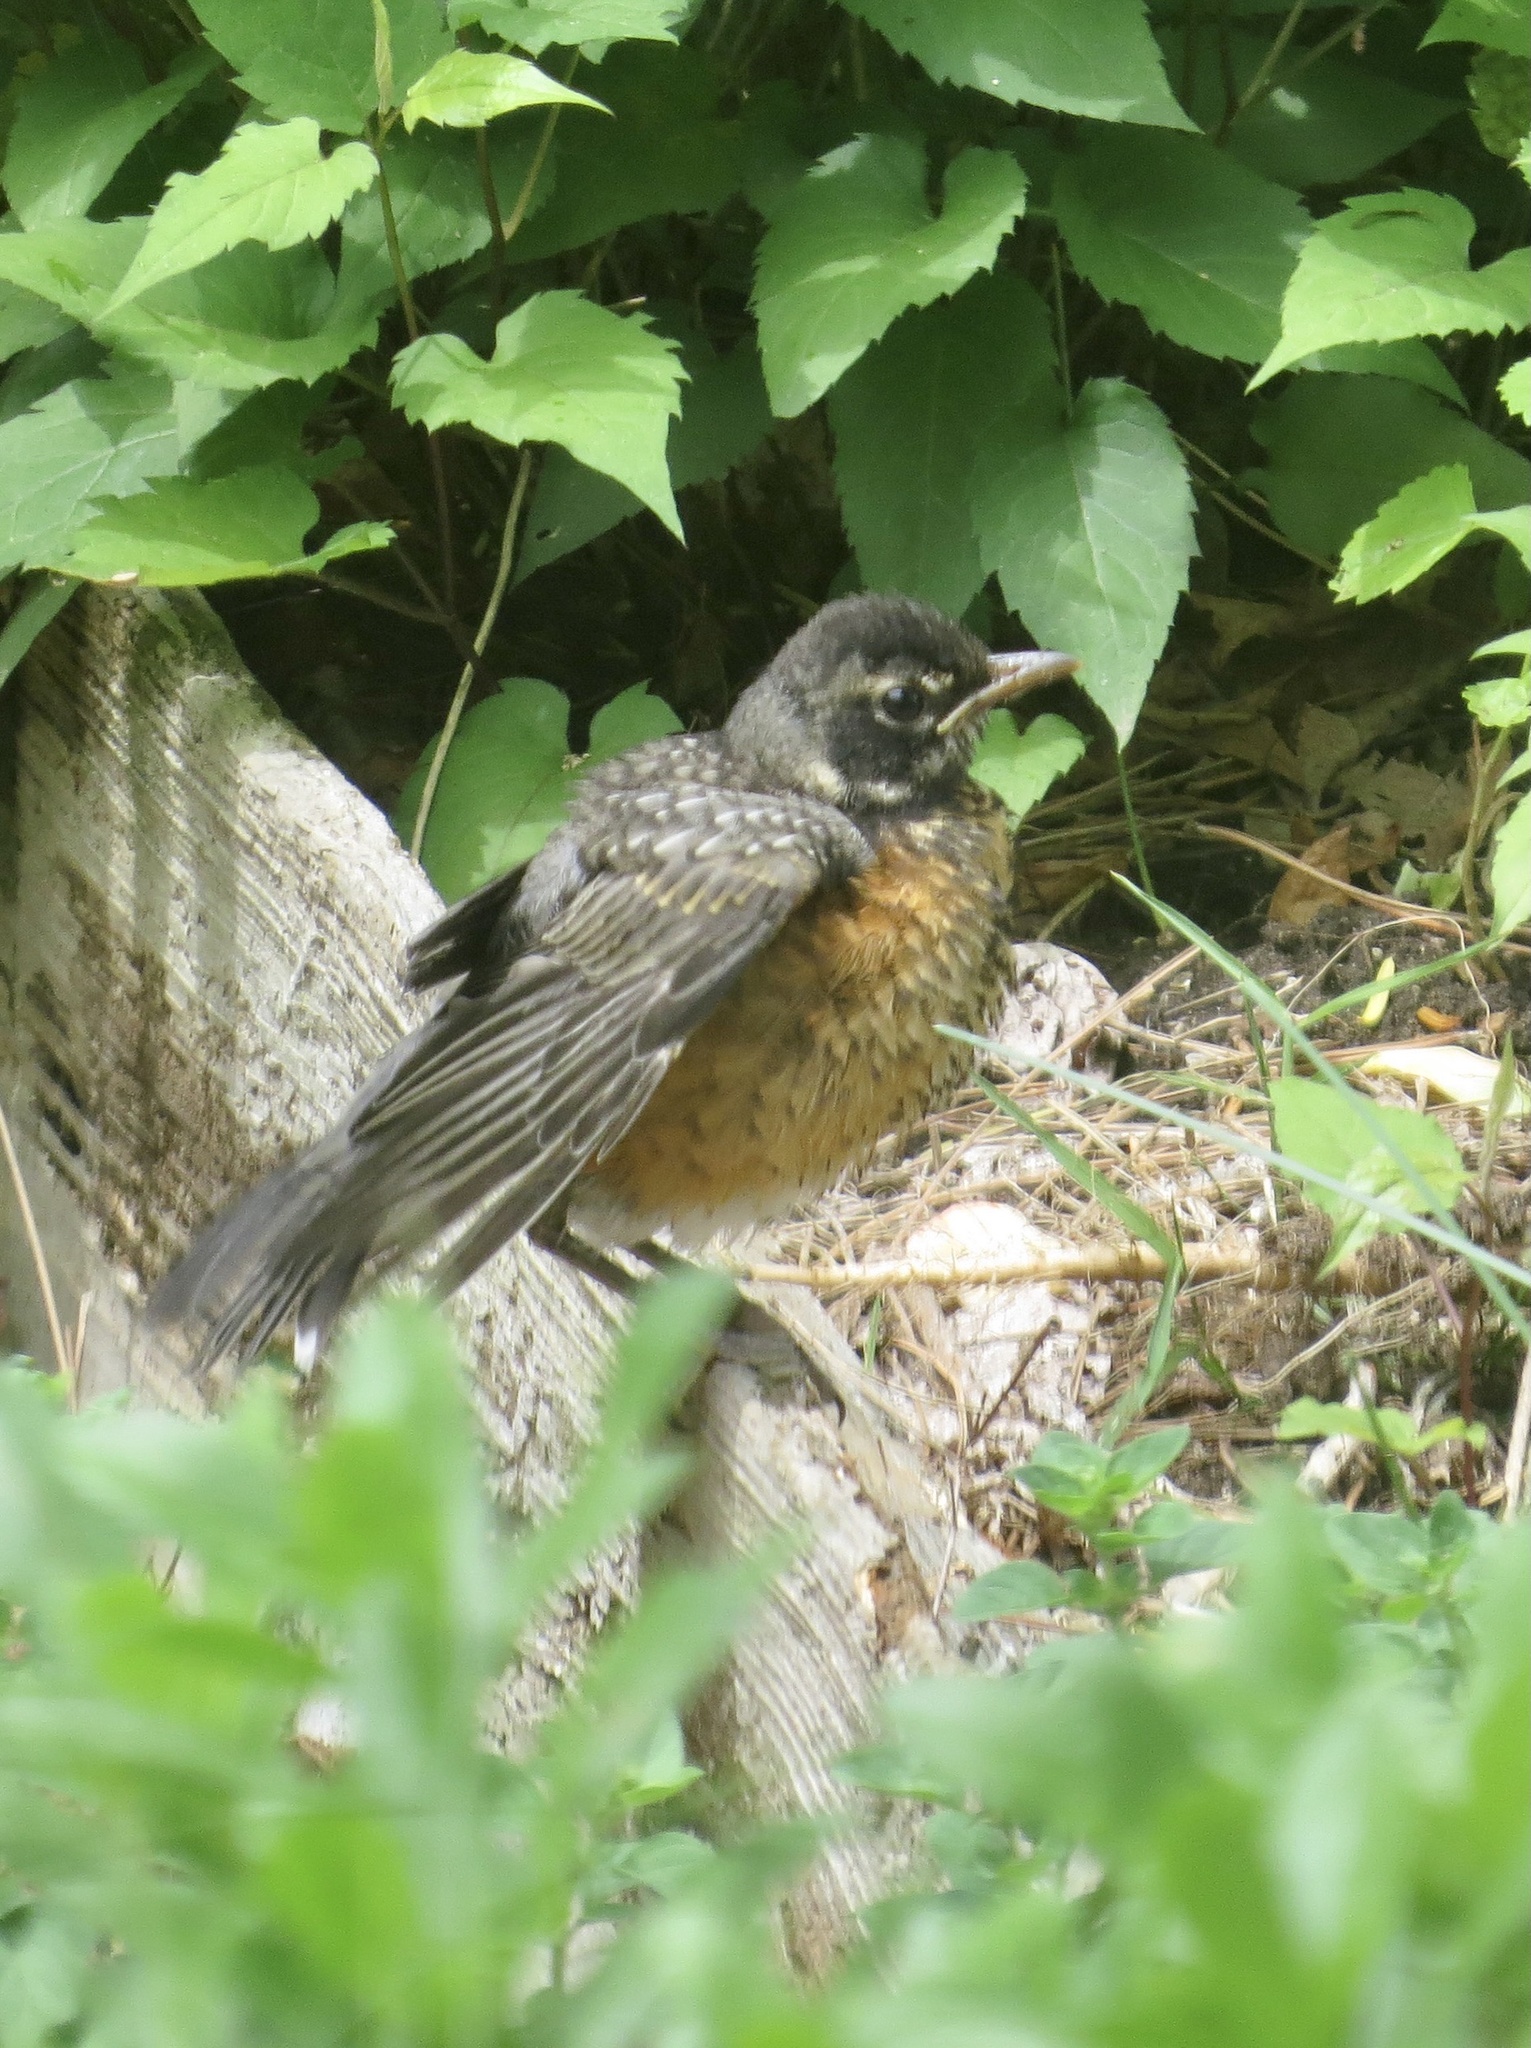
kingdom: Animalia
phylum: Chordata
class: Aves
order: Passeriformes
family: Turdidae
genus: Turdus
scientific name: Turdus migratorius
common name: American robin
